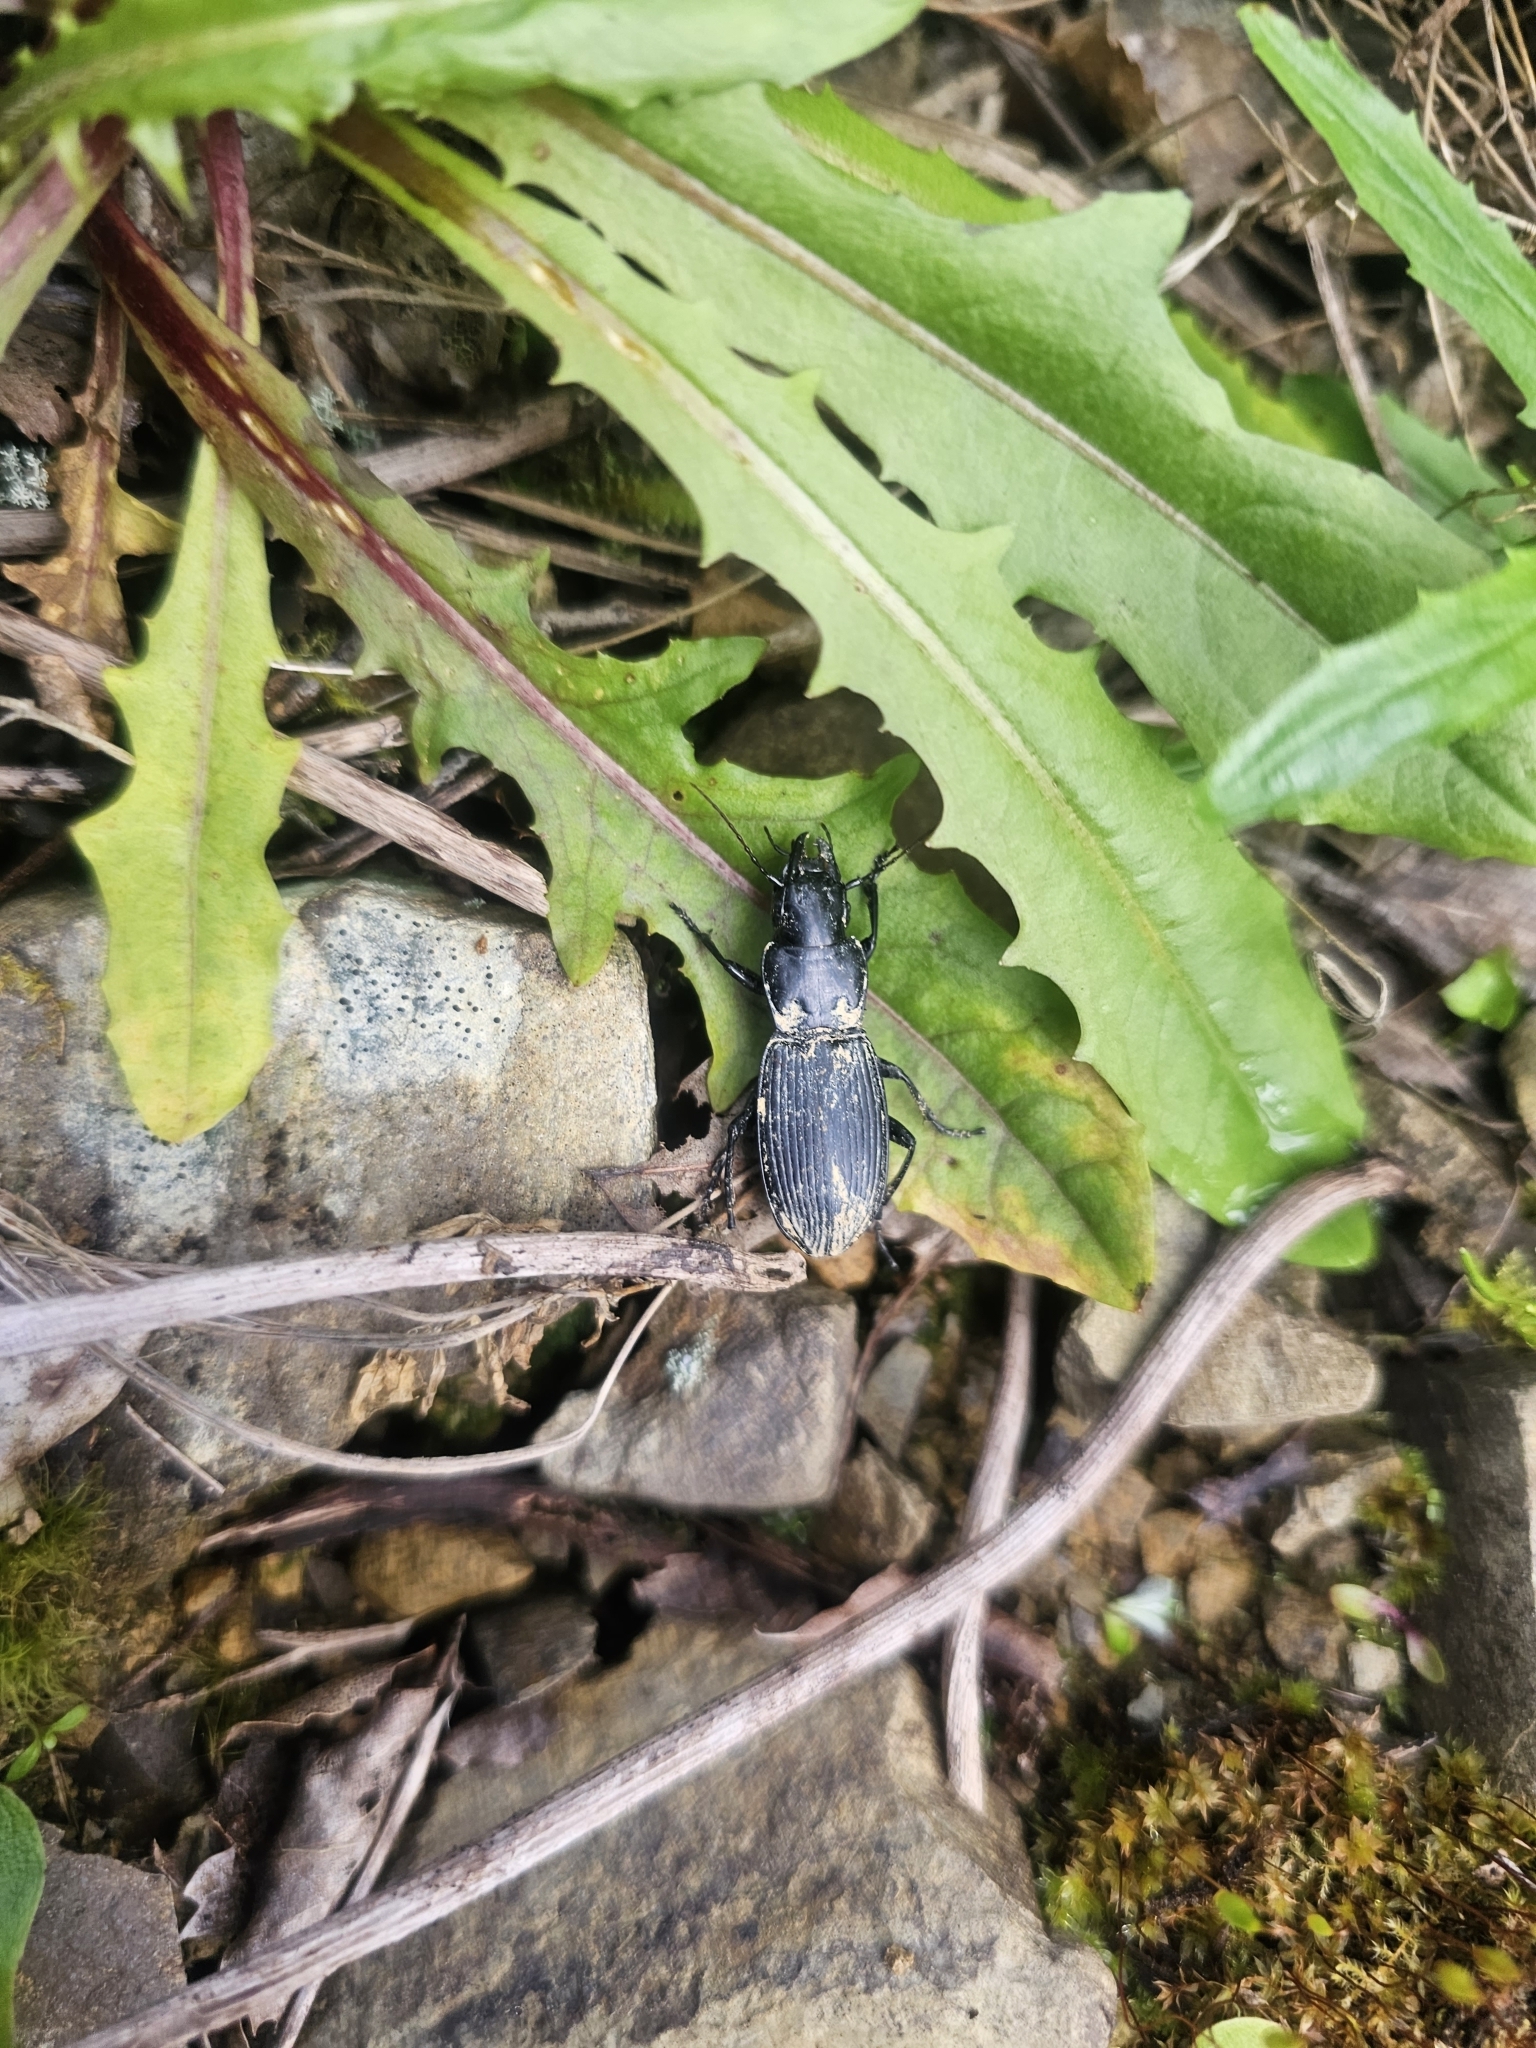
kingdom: Animalia
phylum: Arthropoda
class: Insecta
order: Coleoptera
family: Carabidae
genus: Plocamostethus
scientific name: Plocamostethus planiusculus
